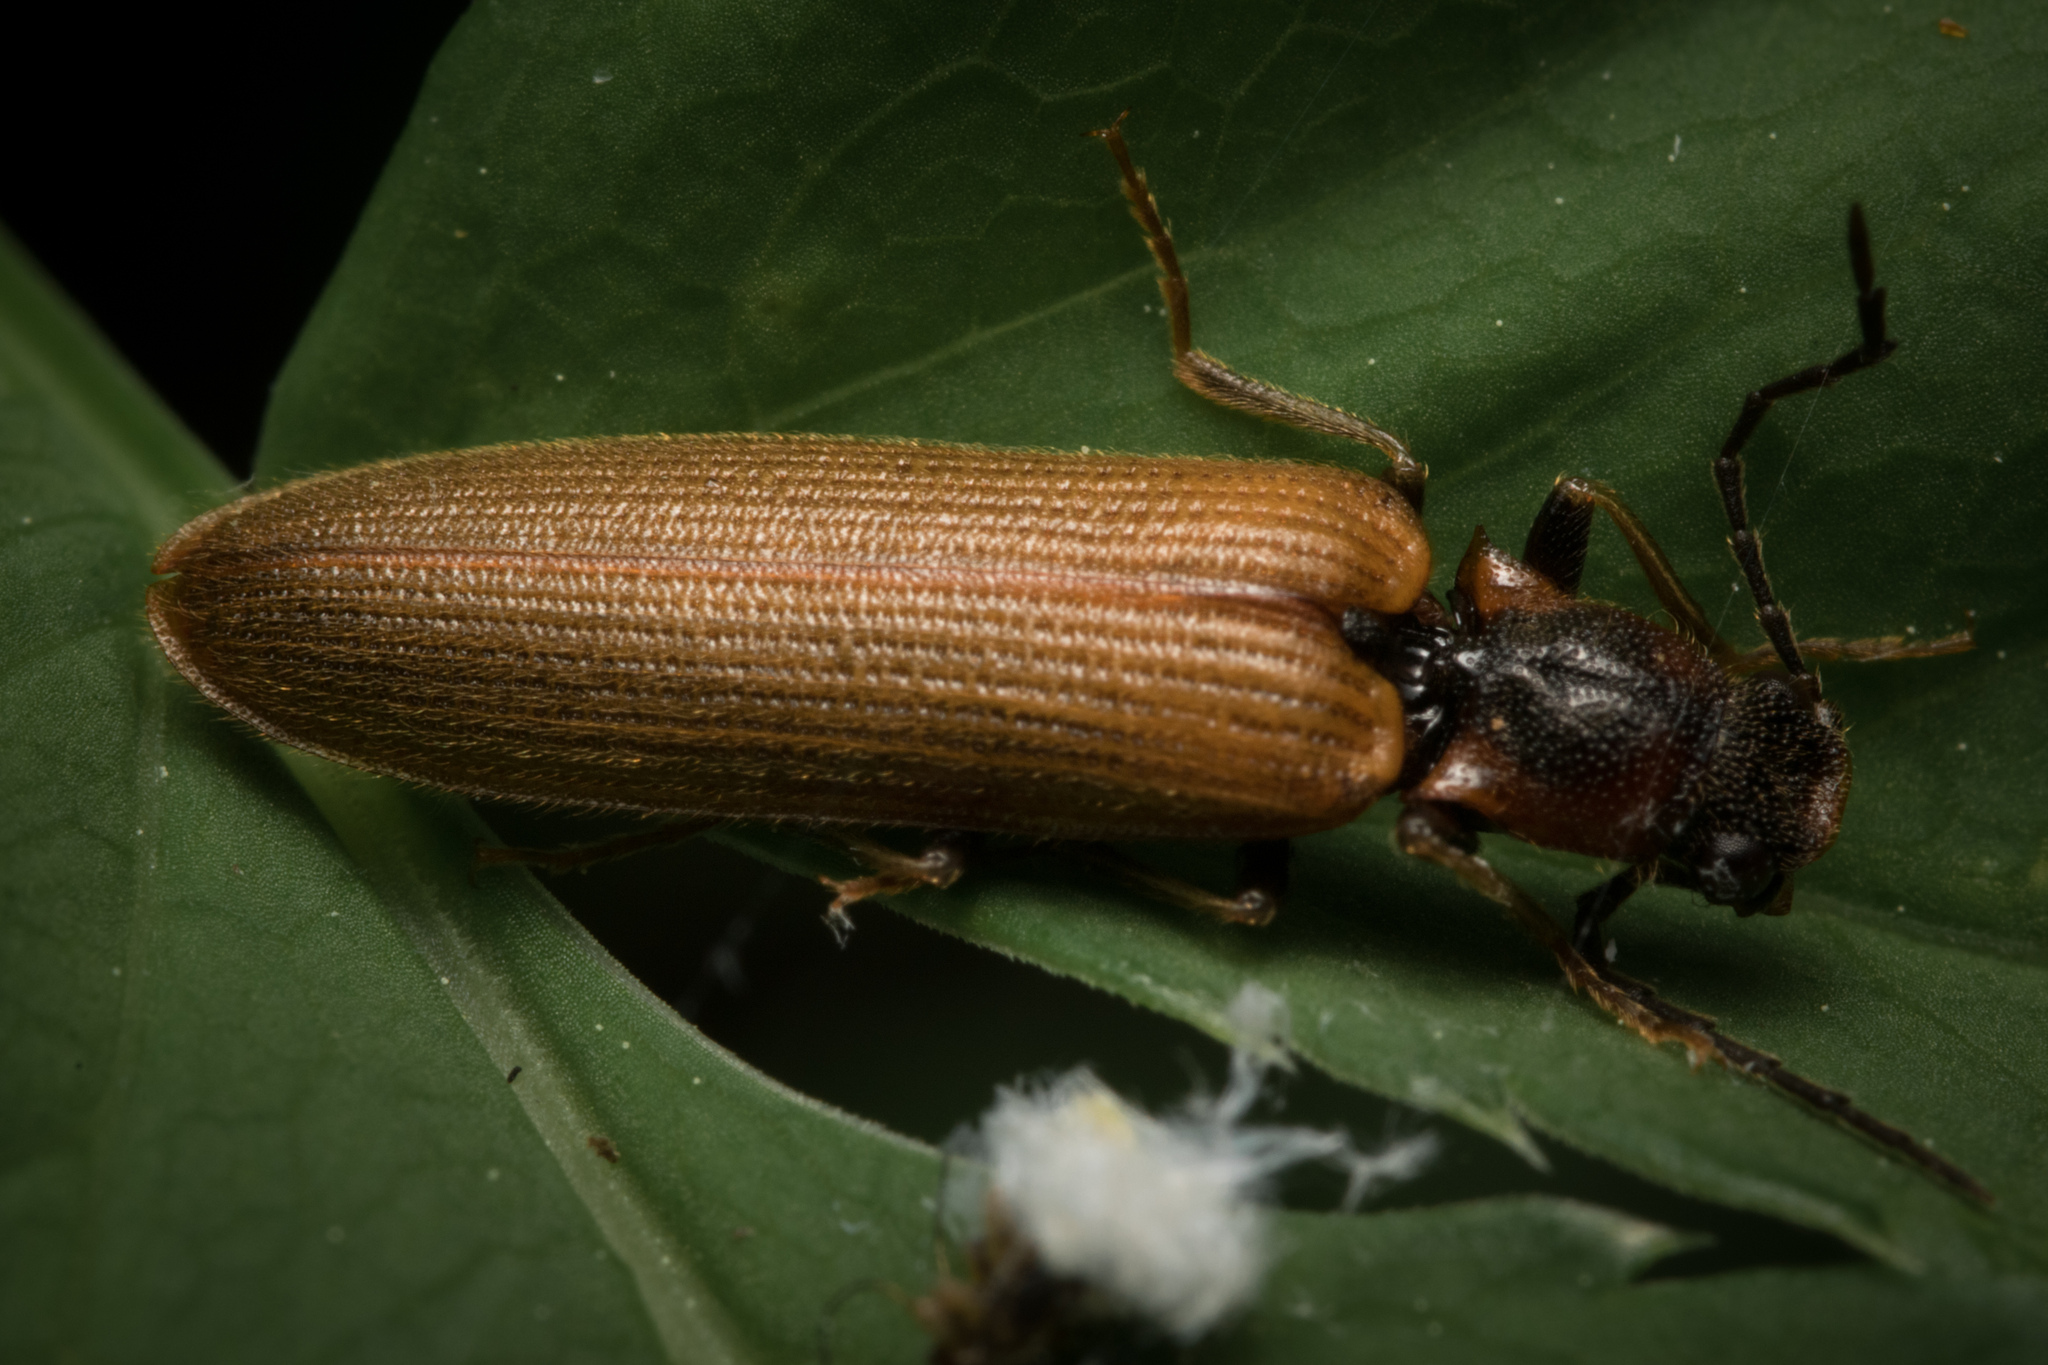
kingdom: Animalia
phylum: Arthropoda
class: Insecta
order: Coleoptera
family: Elateridae
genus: Denticollis
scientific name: Denticollis linearis
